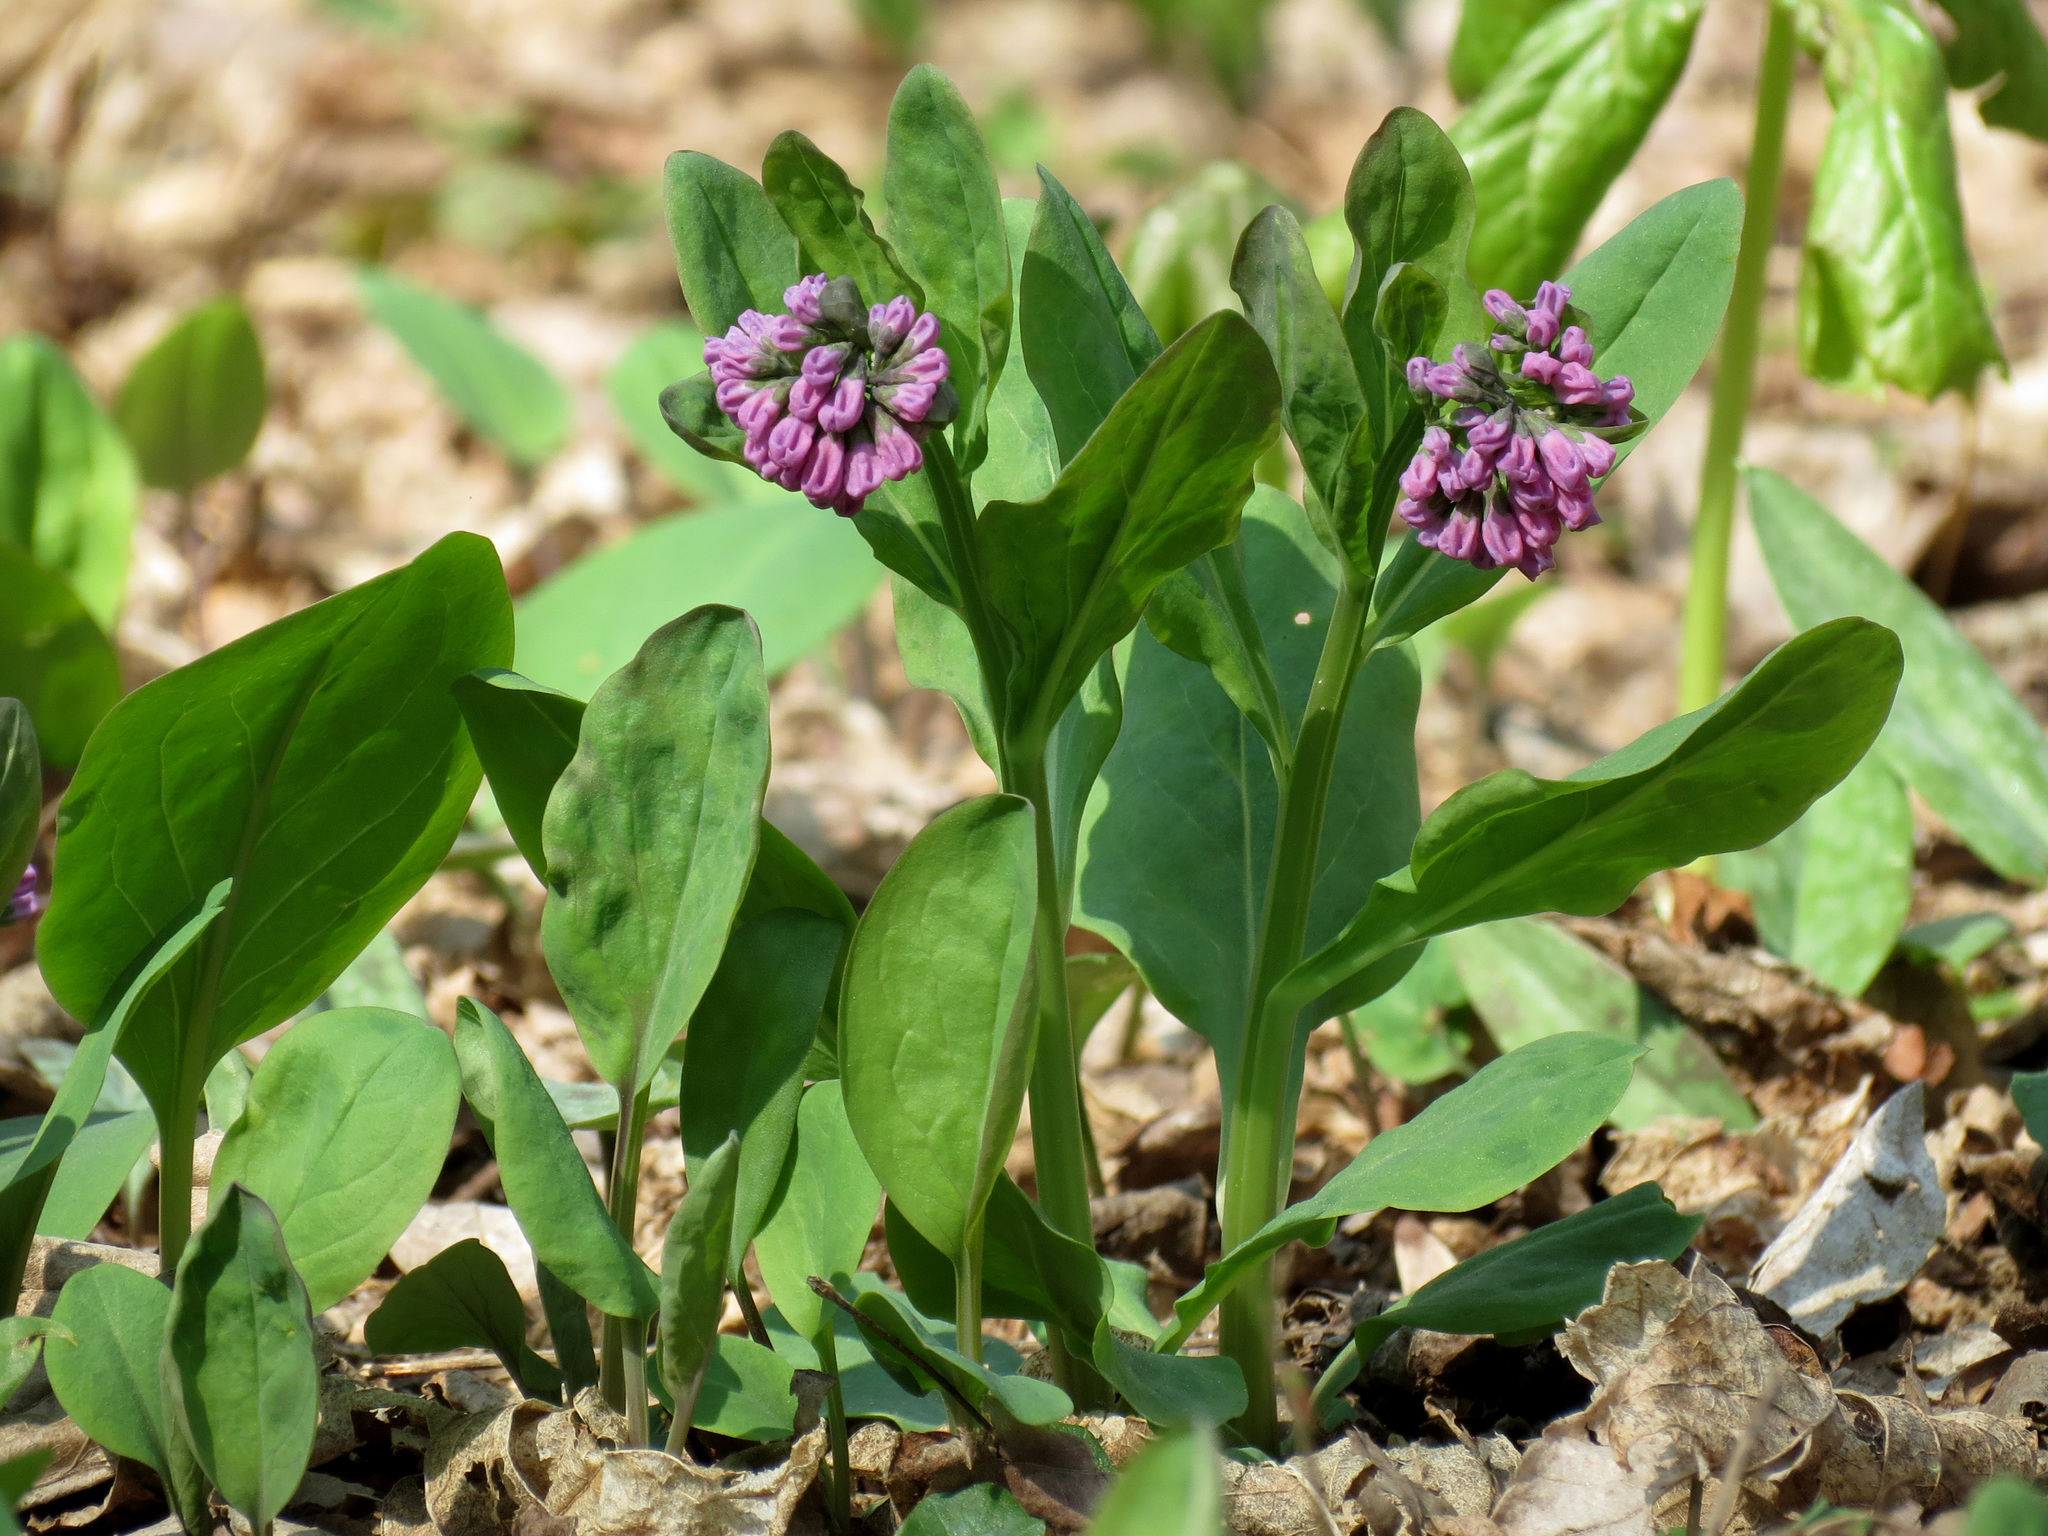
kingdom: Plantae
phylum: Tracheophyta
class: Magnoliopsida
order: Boraginales
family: Boraginaceae
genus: Mertensia
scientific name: Mertensia virginica
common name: Virginia bluebells
